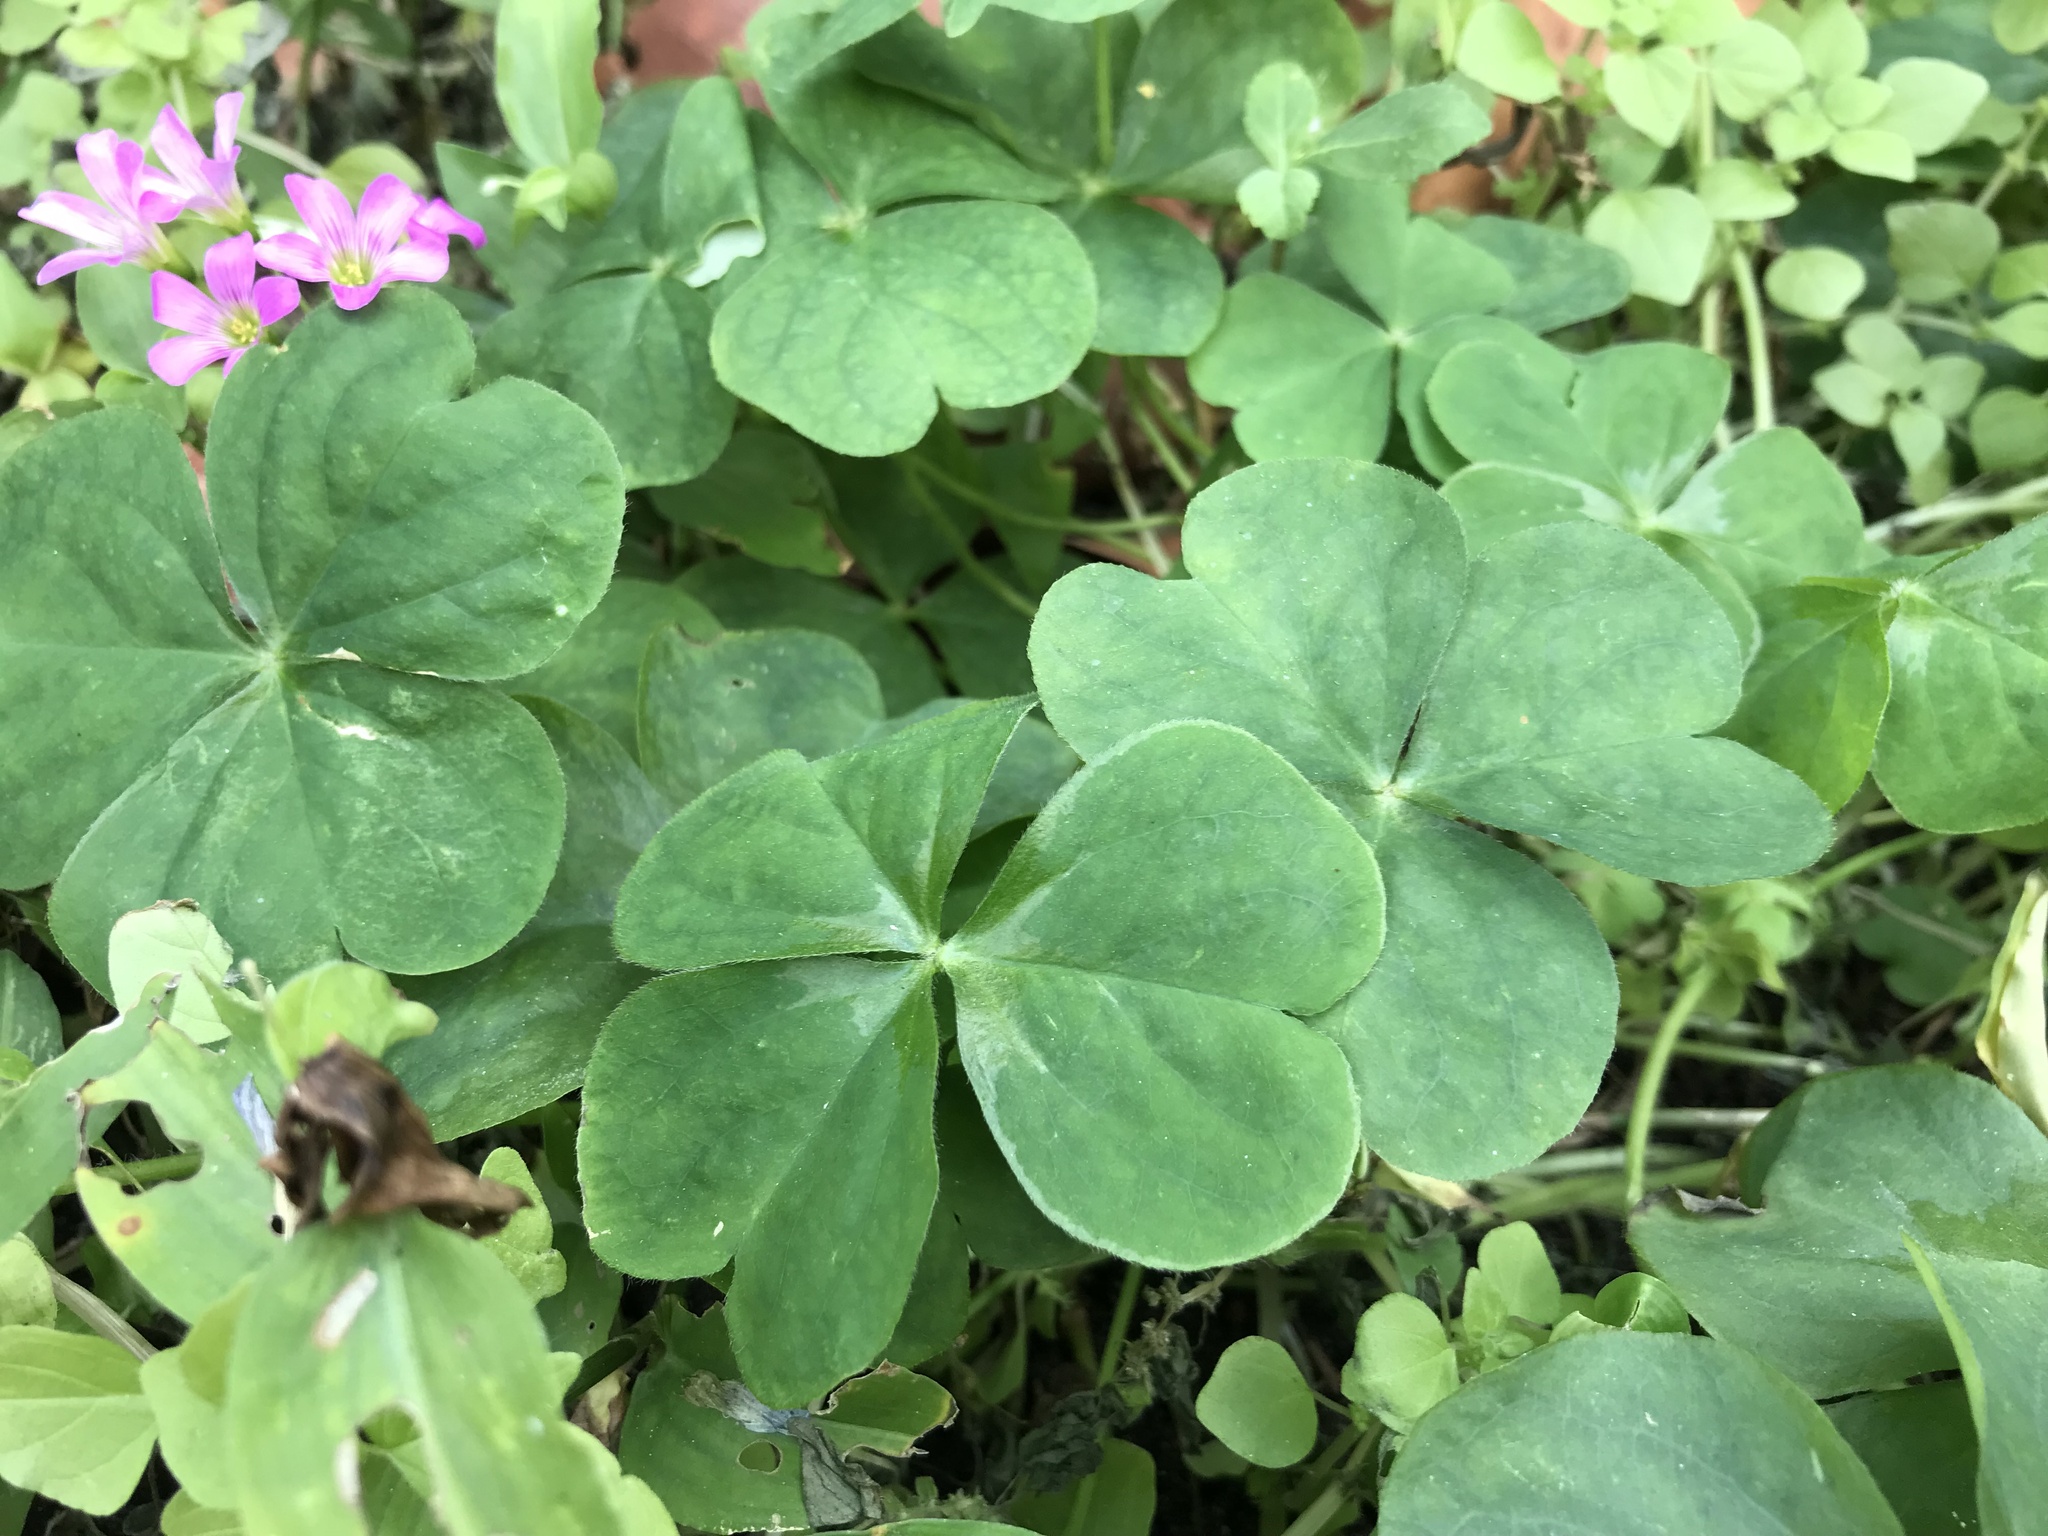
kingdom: Plantae
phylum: Tracheophyta
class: Magnoliopsida
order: Oxalidales
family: Oxalidaceae
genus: Oxalis
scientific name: Oxalis debilis
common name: Large-flowered pink-sorrel
